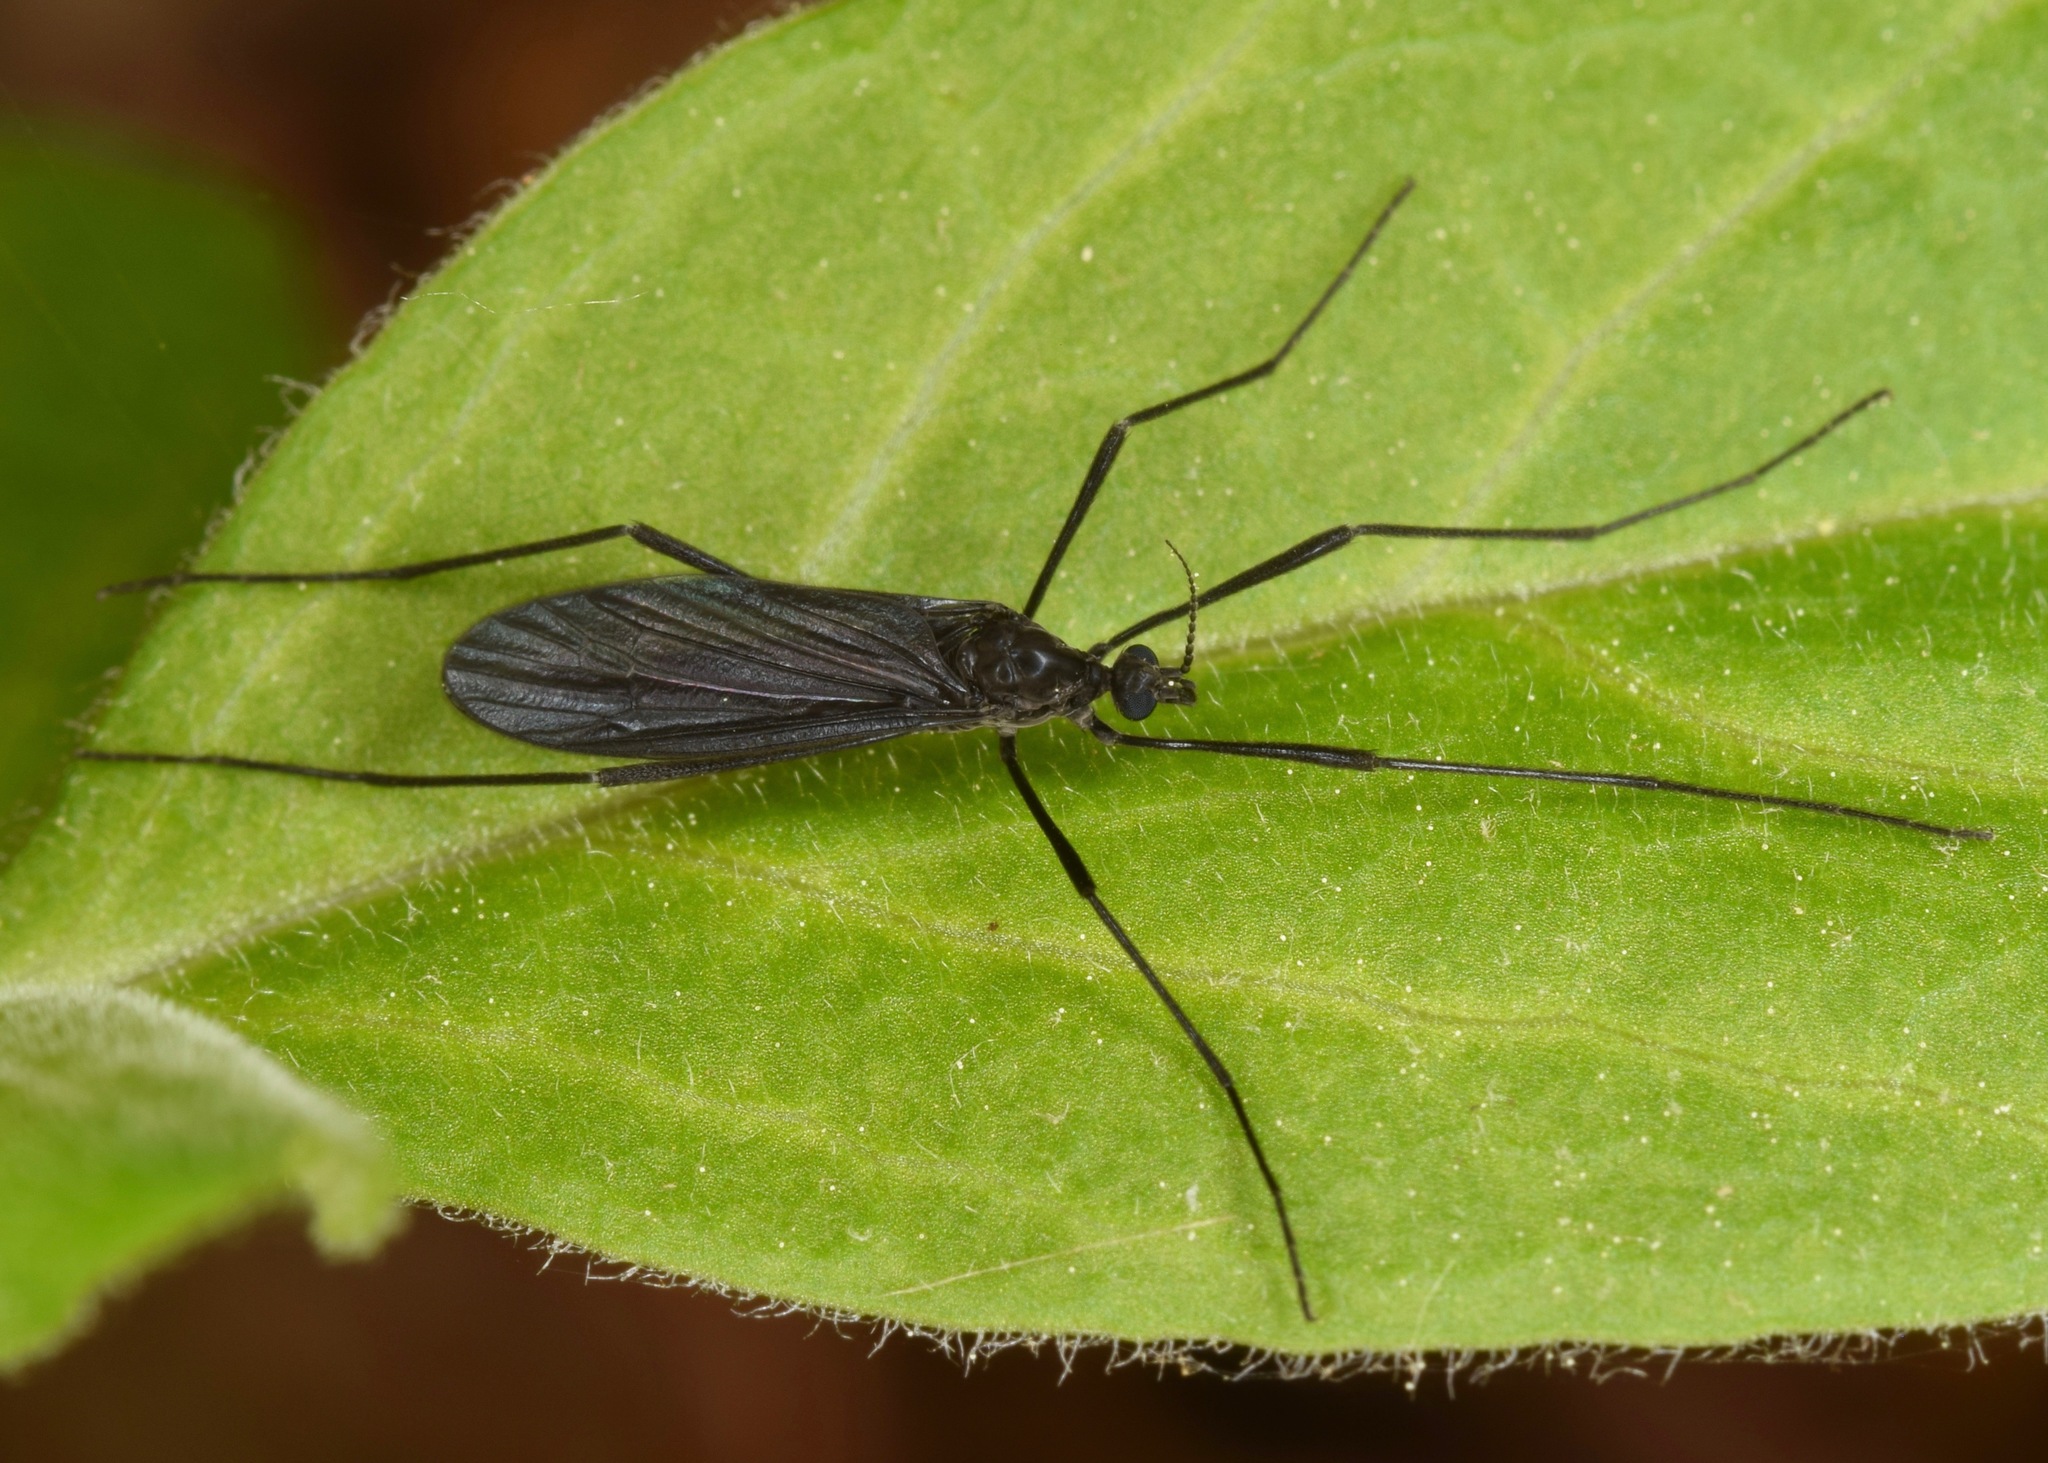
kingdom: Animalia
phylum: Arthropoda
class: Insecta
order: Diptera
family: Limoniidae
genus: Eugnophomyia
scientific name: Eugnophomyia luctuosa
